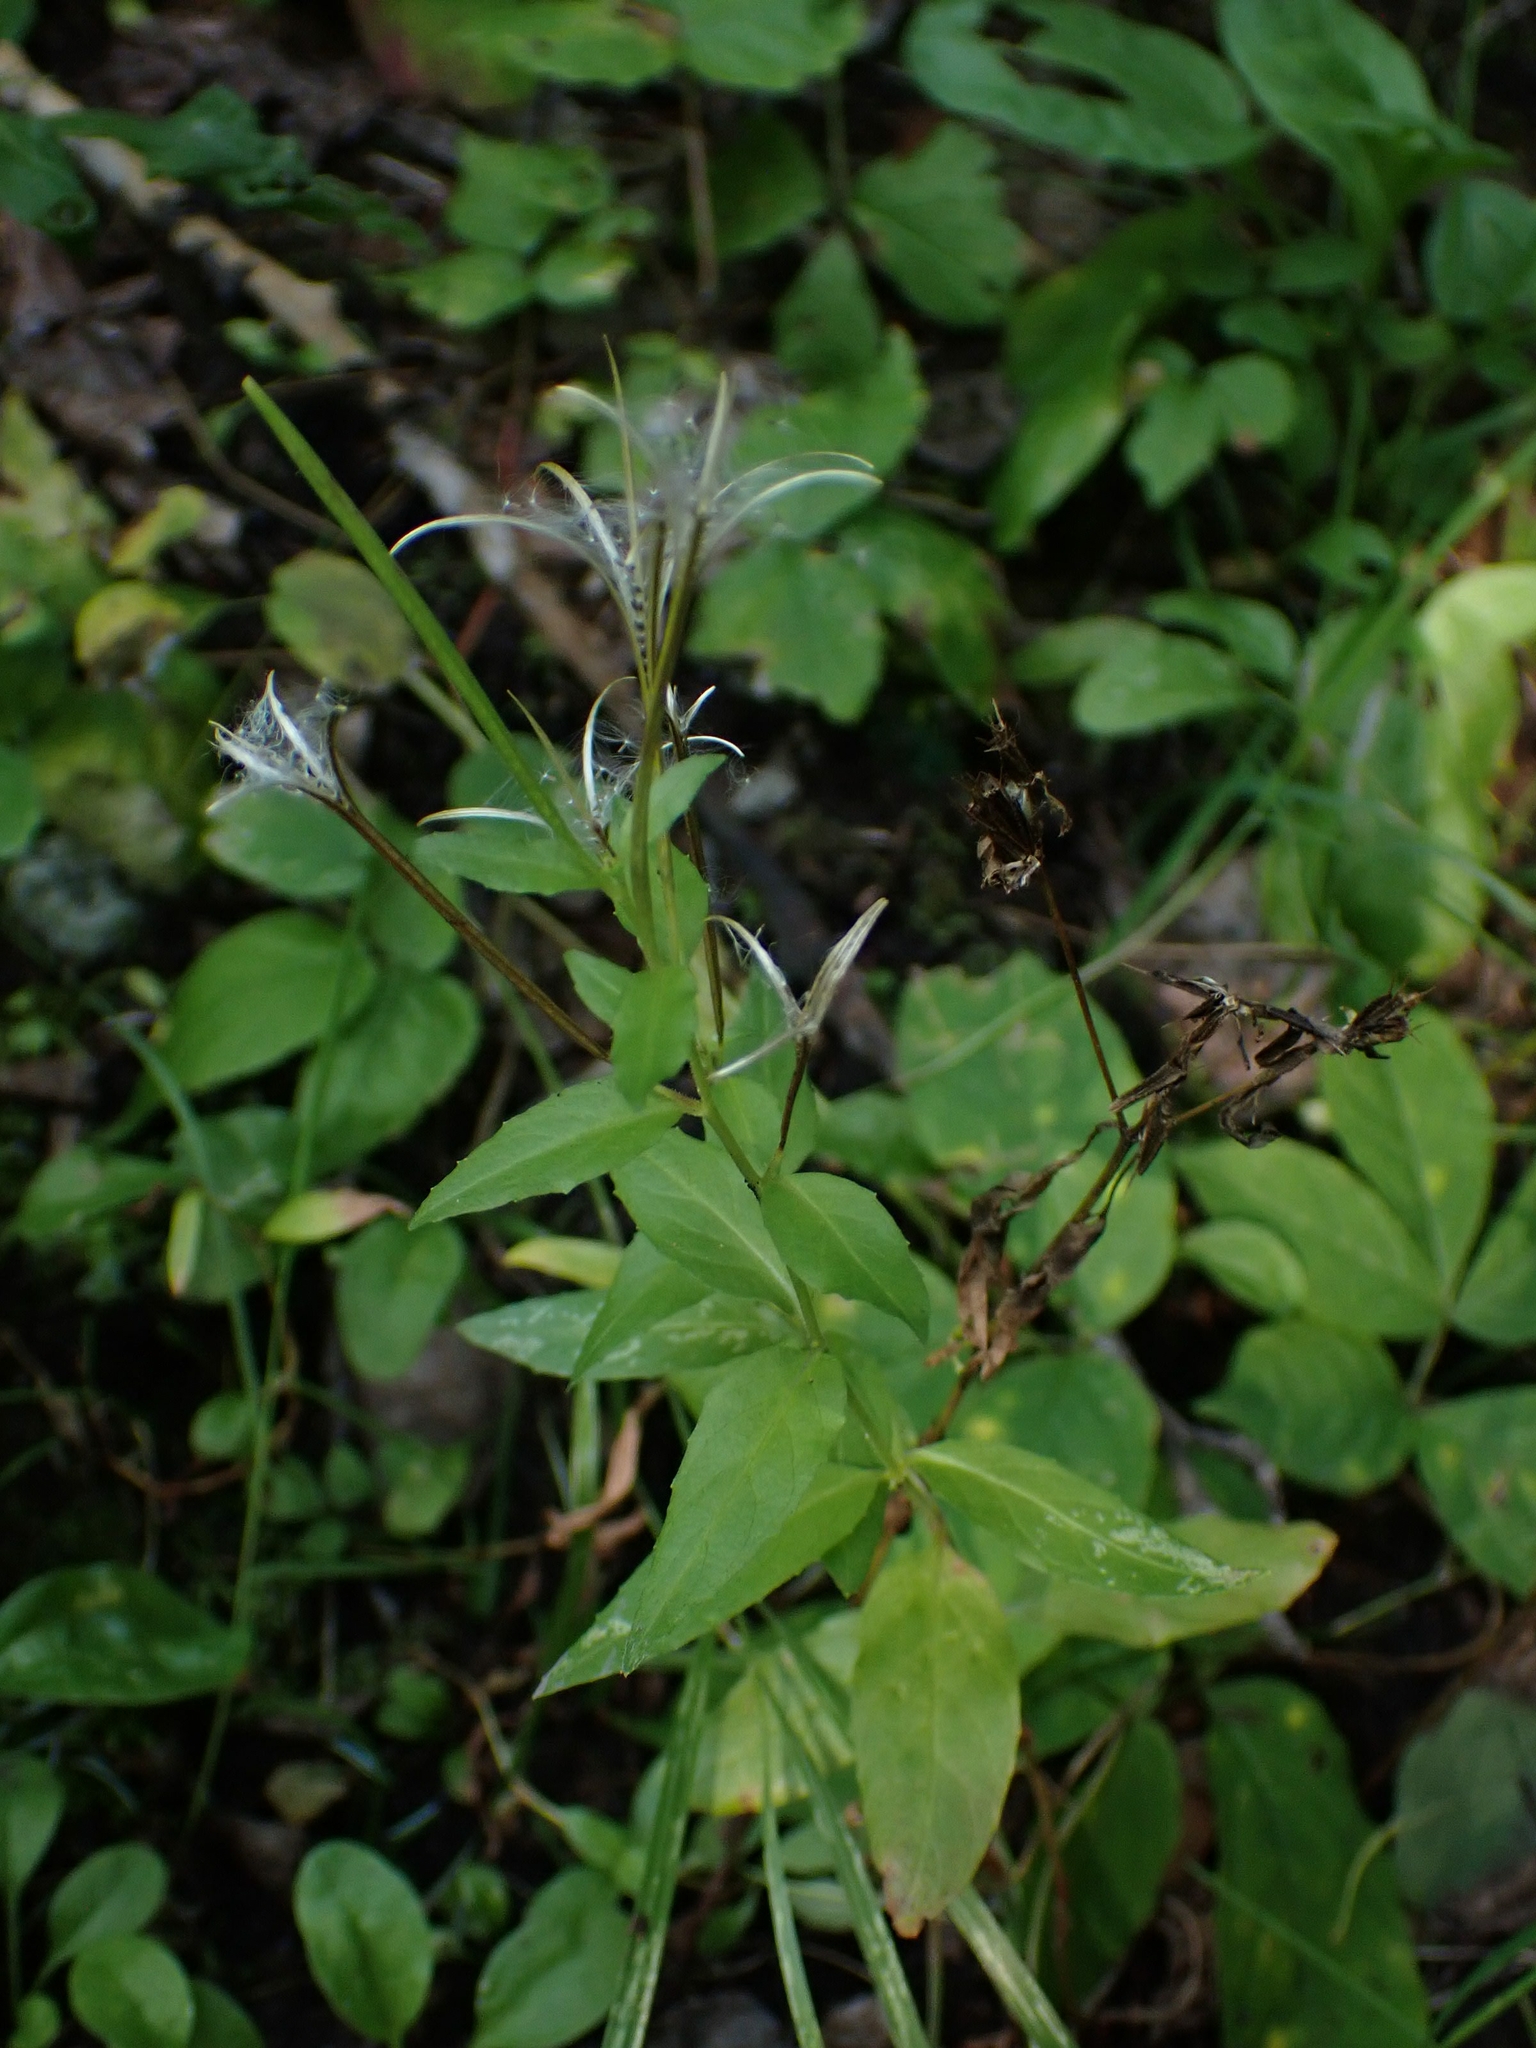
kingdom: Plantae
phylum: Tracheophyta
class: Magnoliopsida
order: Myrtales
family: Onagraceae
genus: Epilobium
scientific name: Epilobium ciliatum
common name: American willowherb
